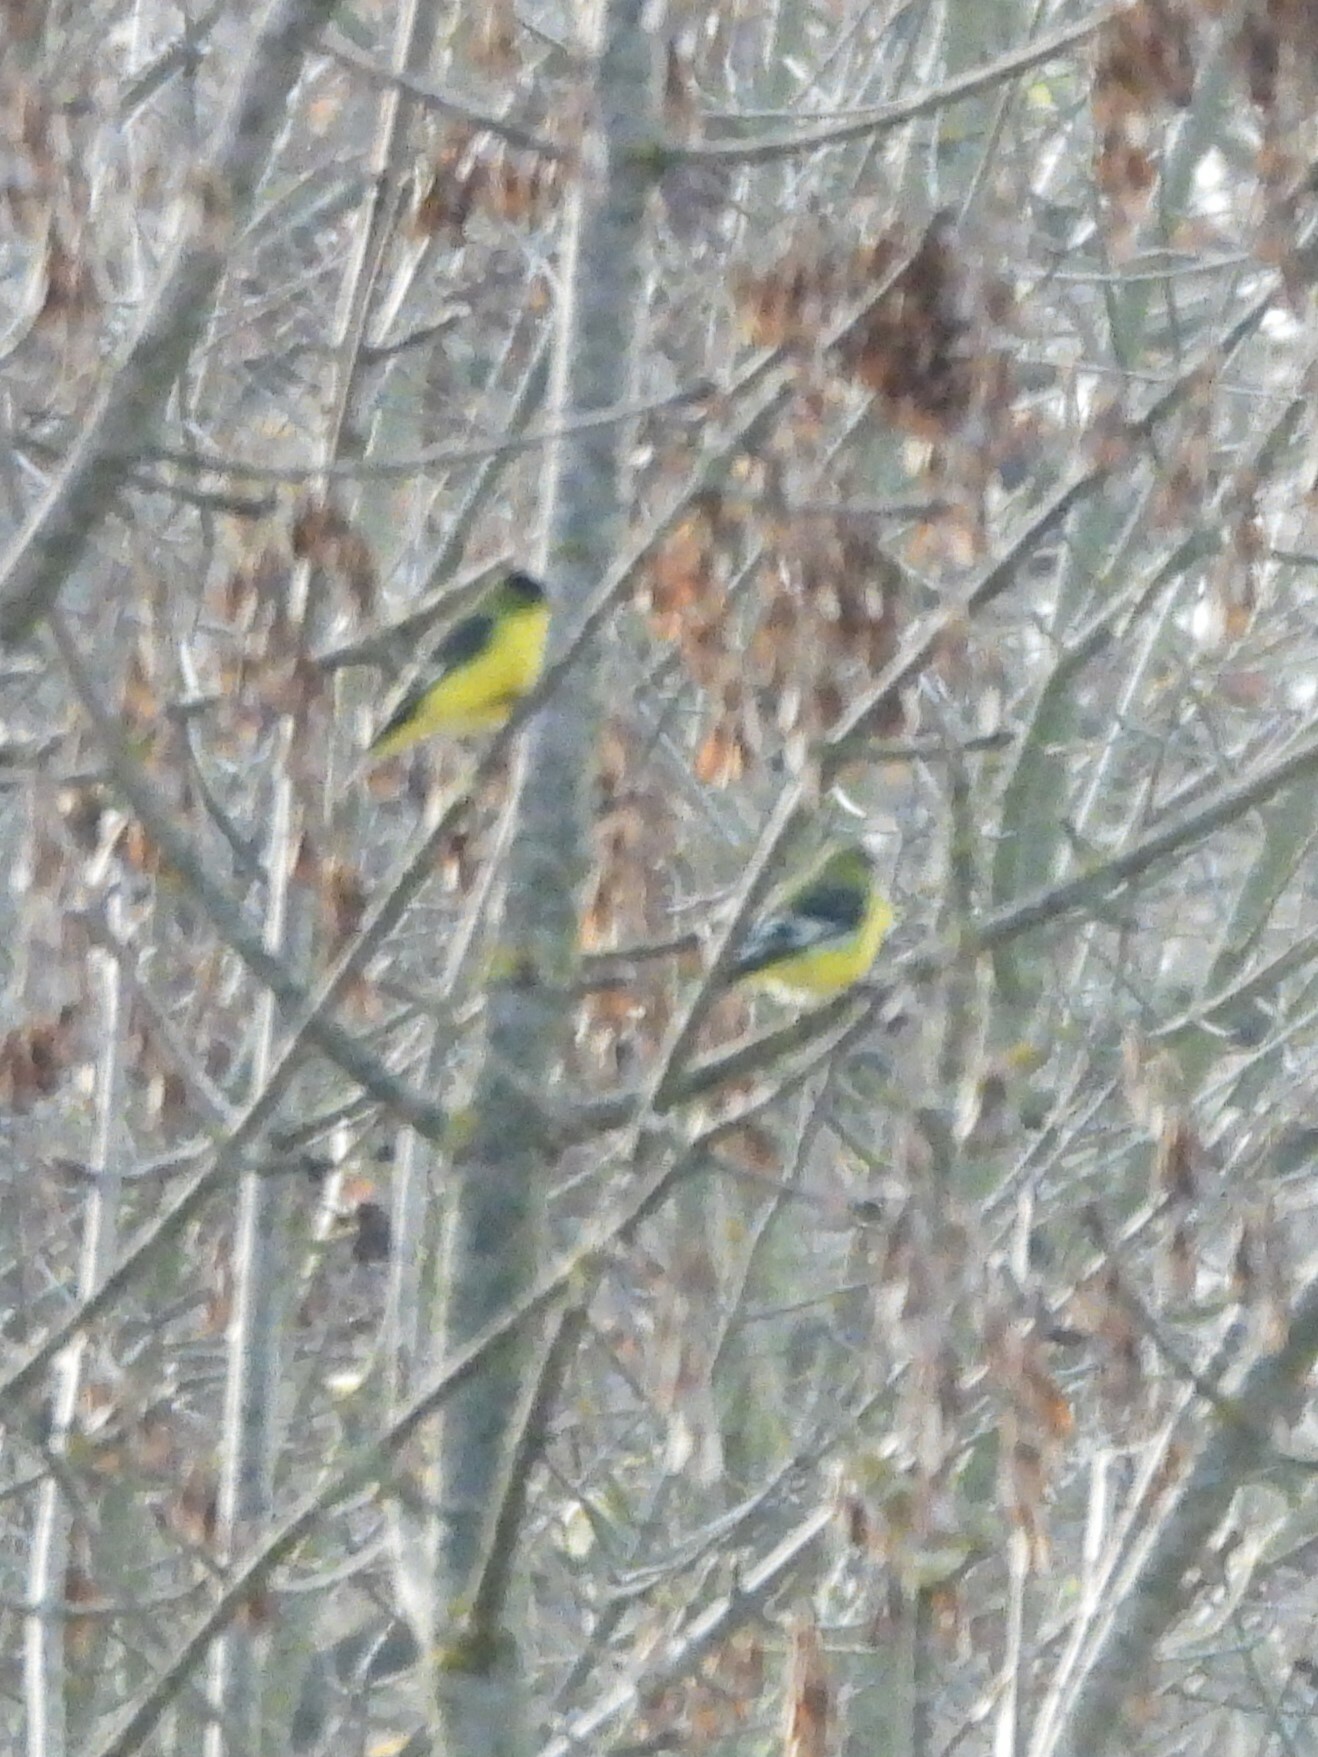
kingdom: Animalia
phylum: Chordata
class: Aves
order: Passeriformes
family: Fringillidae
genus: Spinus
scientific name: Spinus psaltria
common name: Lesser goldfinch
